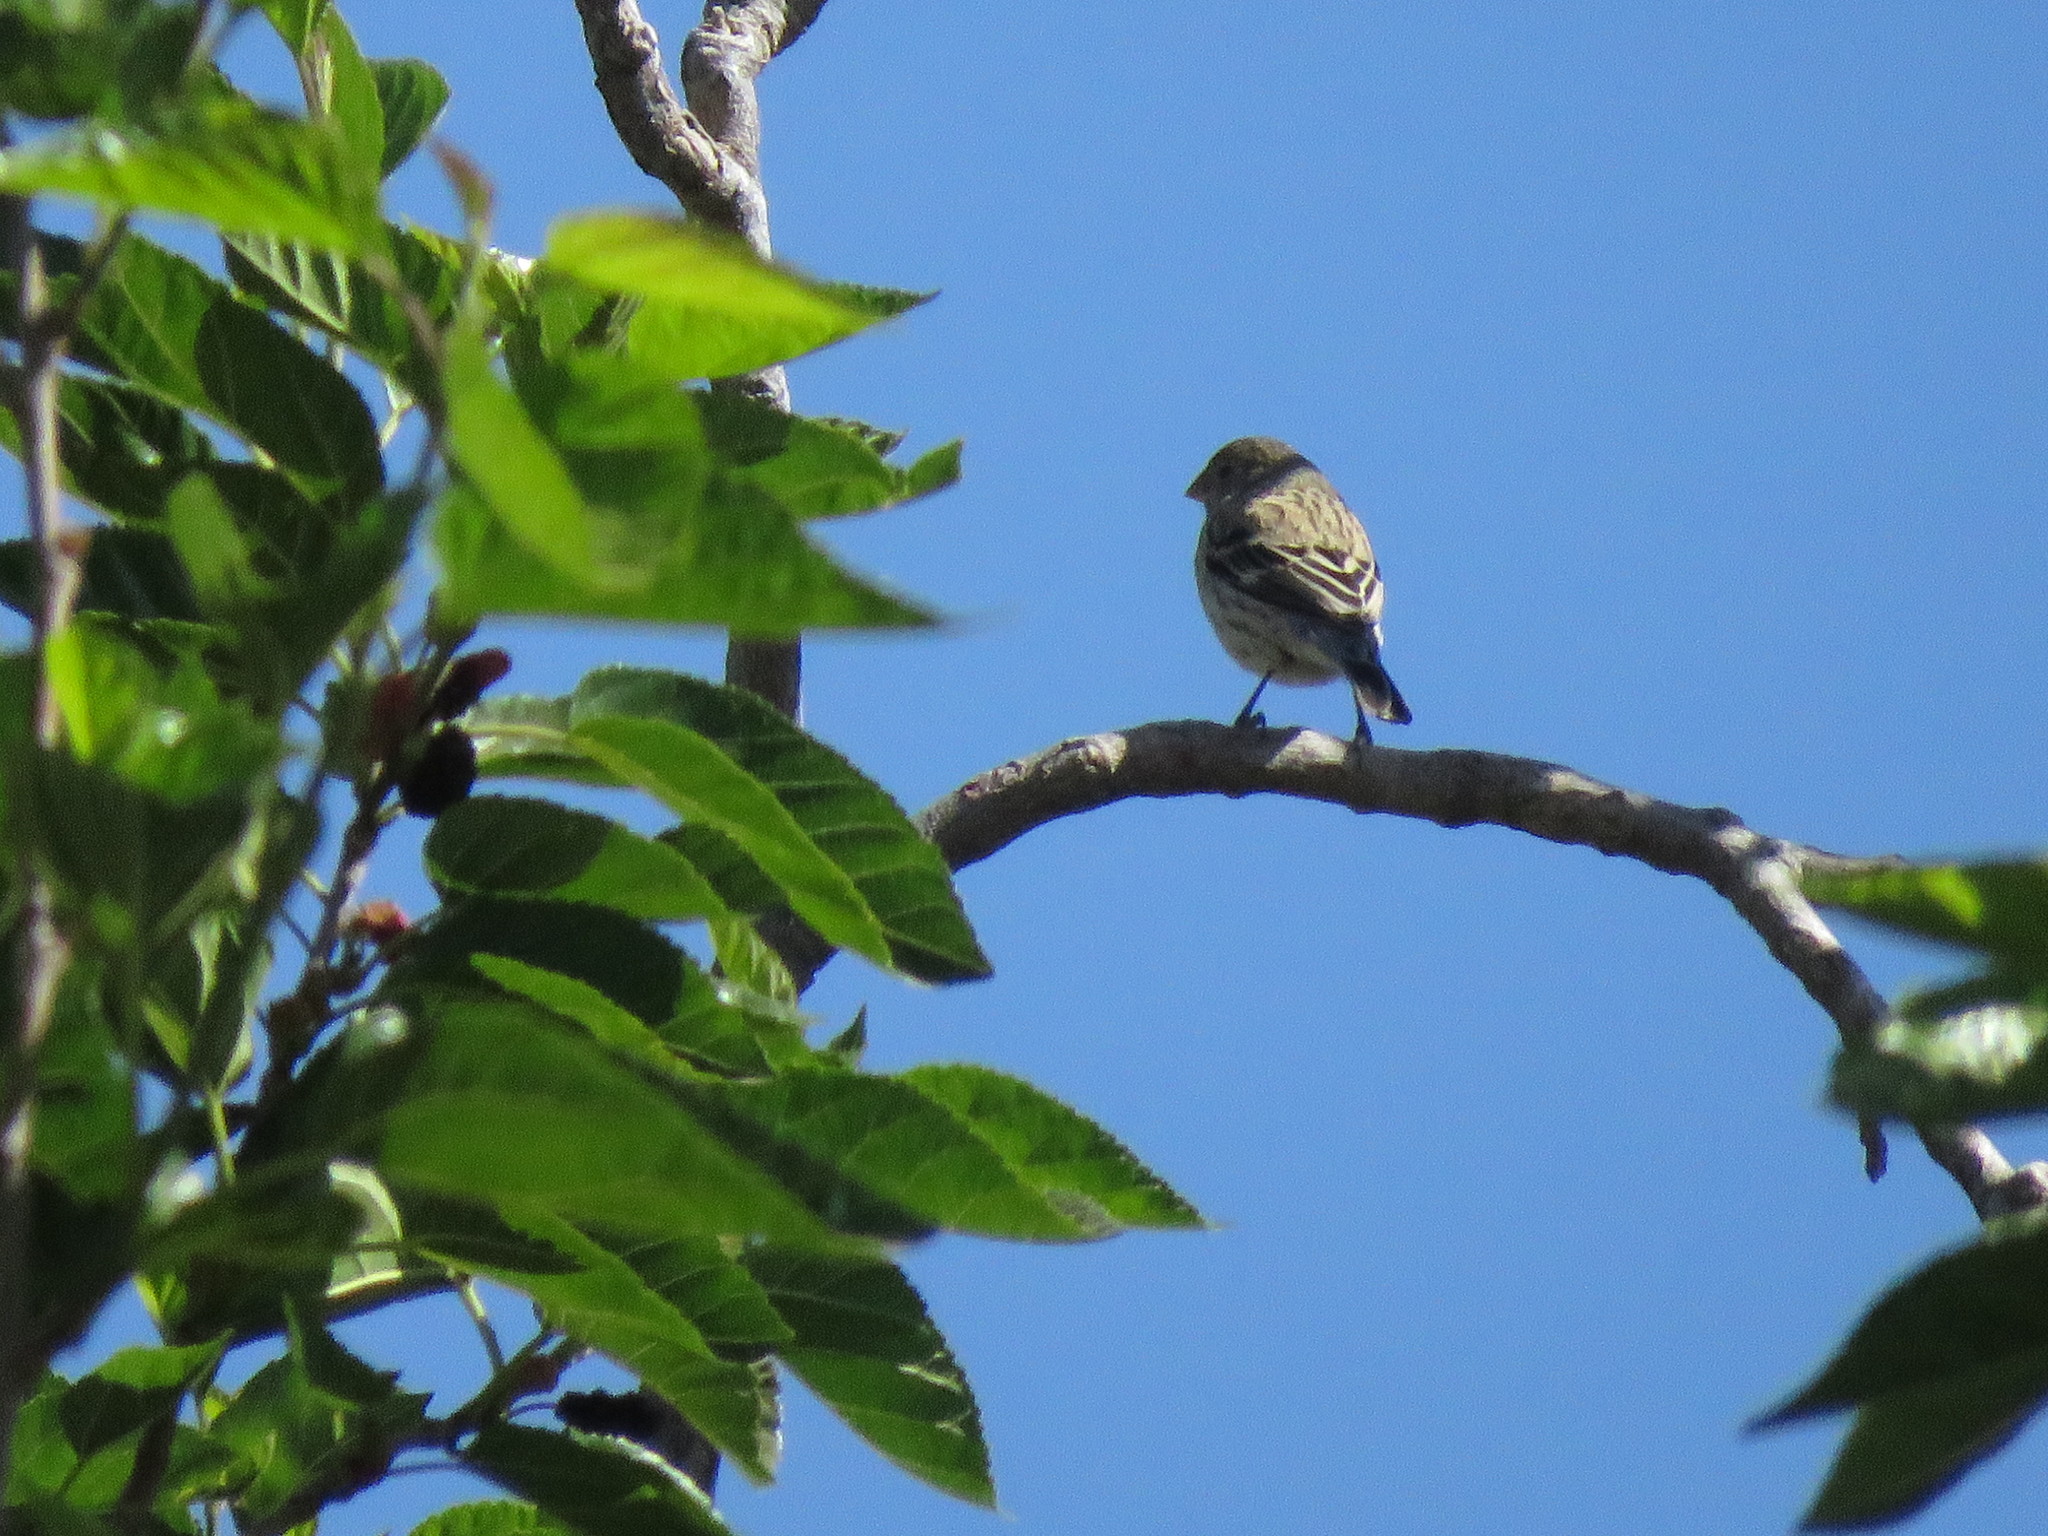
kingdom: Animalia
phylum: Chordata
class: Aves
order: Passeriformes
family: Thraupidae
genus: Catamenia
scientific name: Catamenia analis
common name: Band-tailed seedeater
